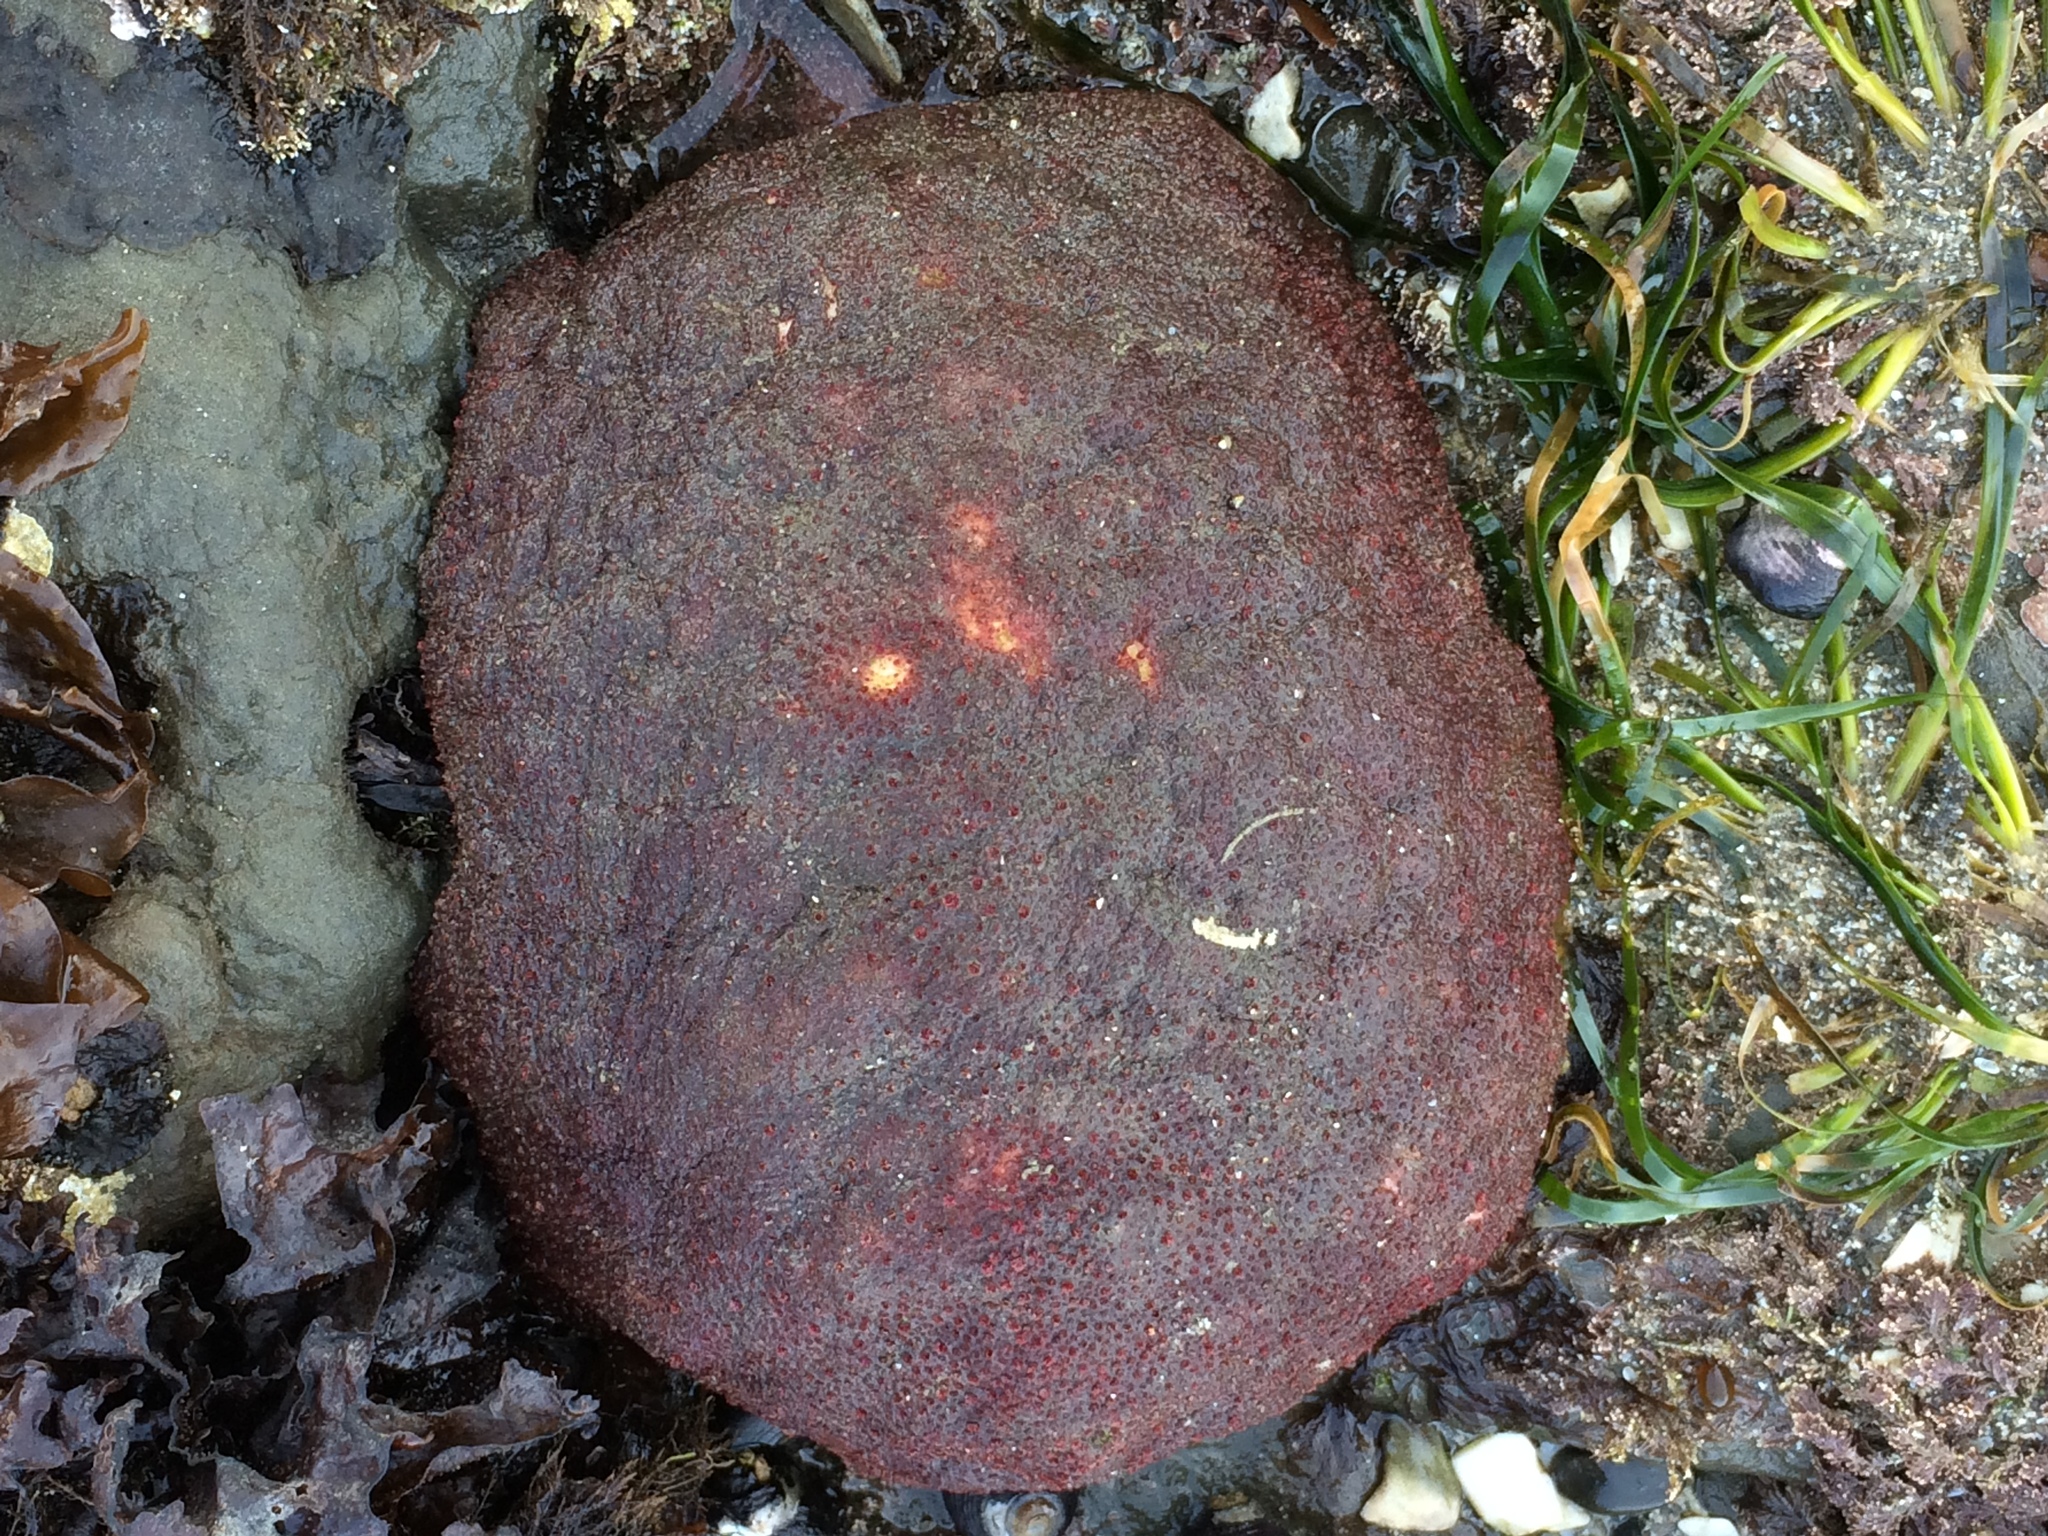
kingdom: Animalia
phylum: Mollusca
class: Polyplacophora
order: Chitonida
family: Acanthochitonidae
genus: Cryptochiton
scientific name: Cryptochiton stelleri
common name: Giant pacific chiton
